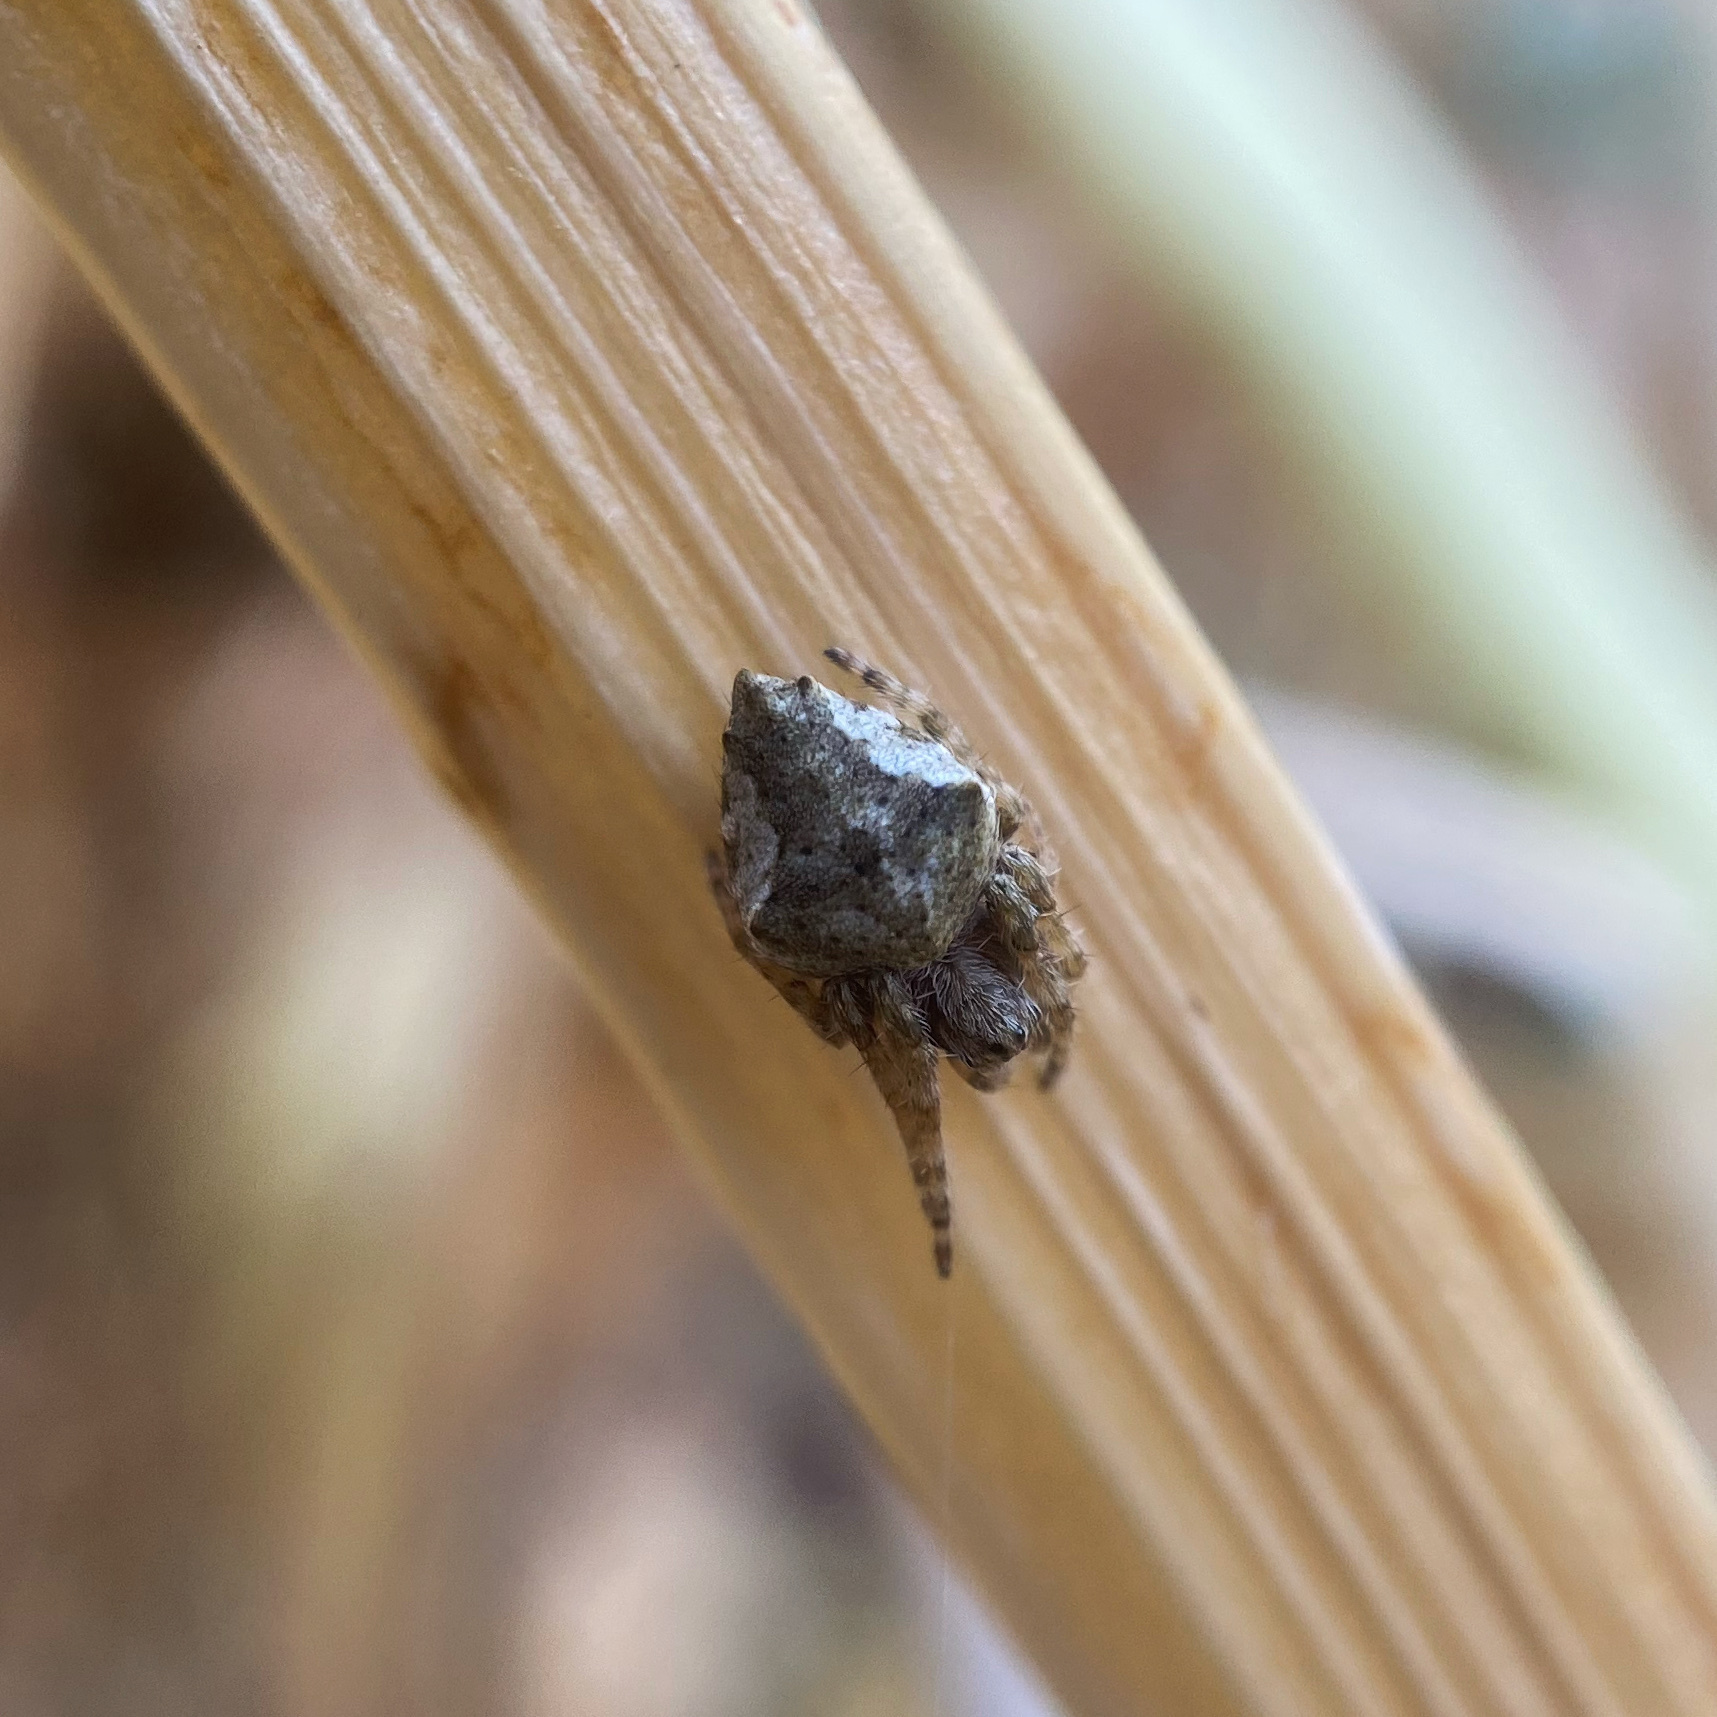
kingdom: Animalia
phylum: Arthropoda
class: Arachnida
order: Araneae
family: Araneidae
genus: Eriophora
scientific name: Eriophora pustulosa
